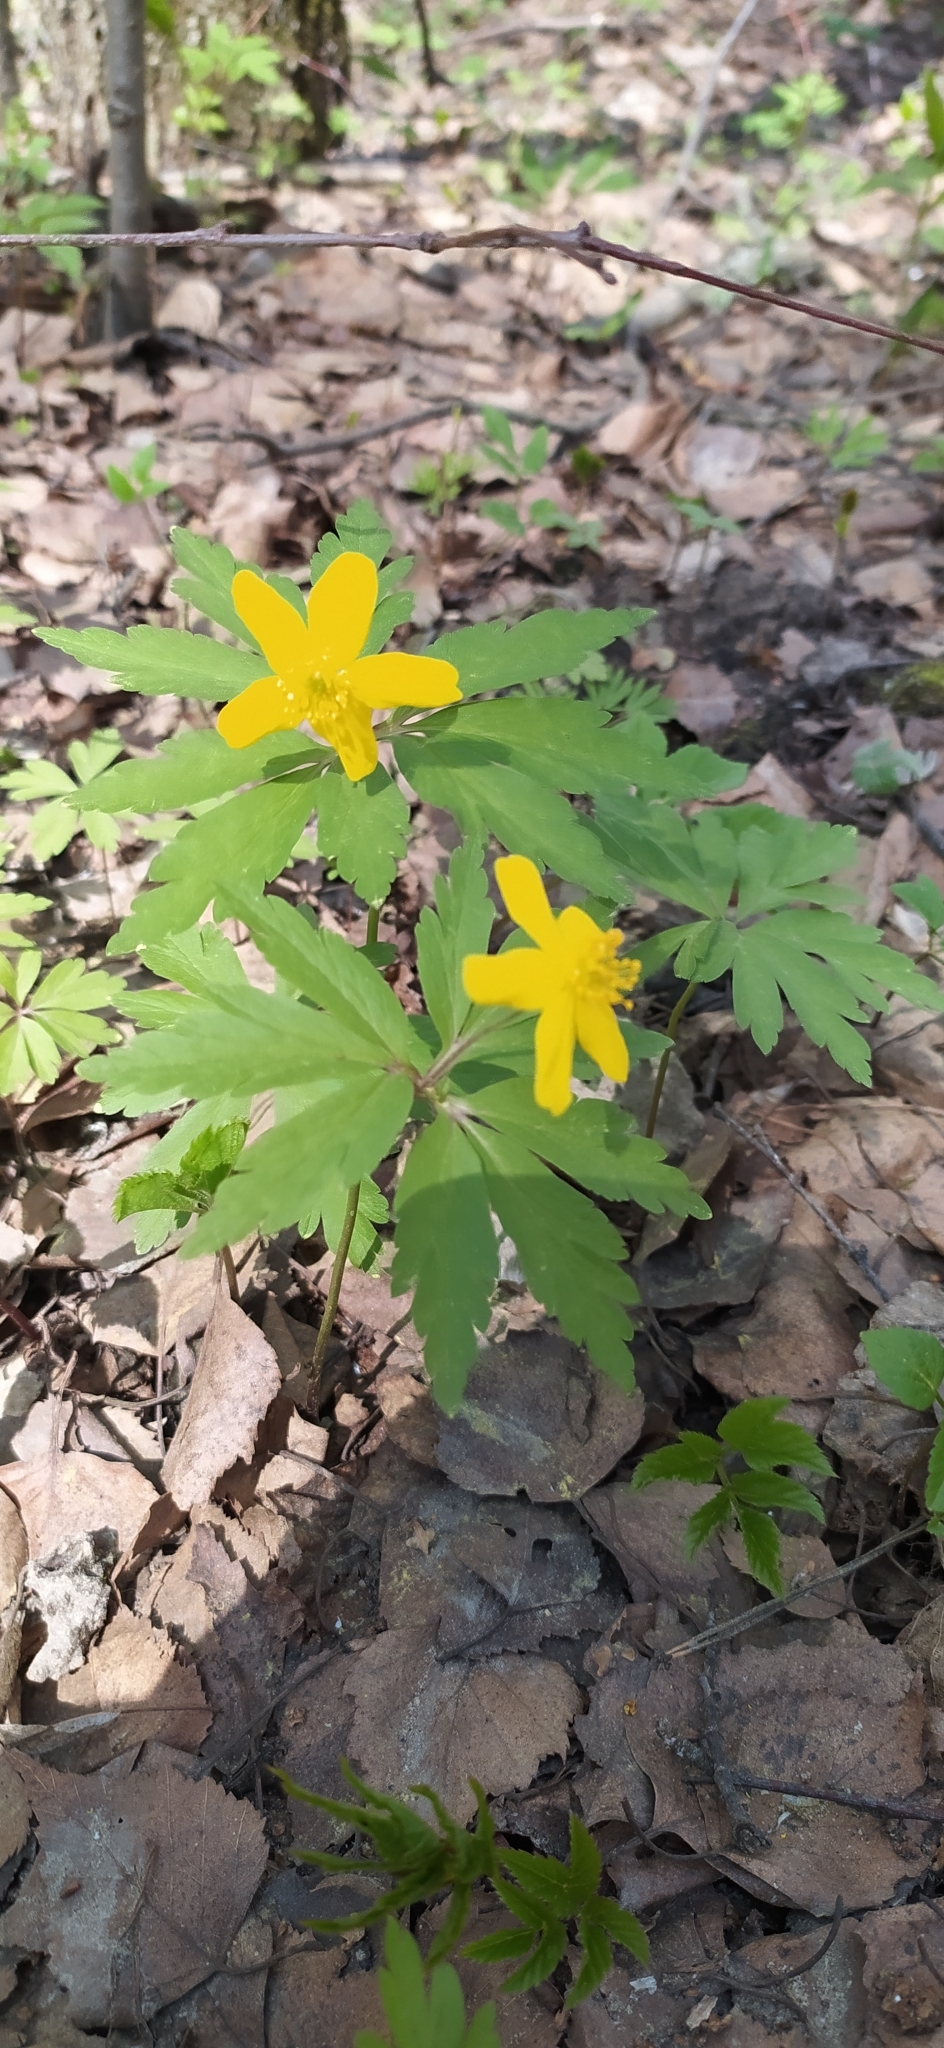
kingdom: Plantae
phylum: Tracheophyta
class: Magnoliopsida
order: Ranunculales
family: Ranunculaceae
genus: Anemone
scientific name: Anemone ranunculoides
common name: Yellow anemone
